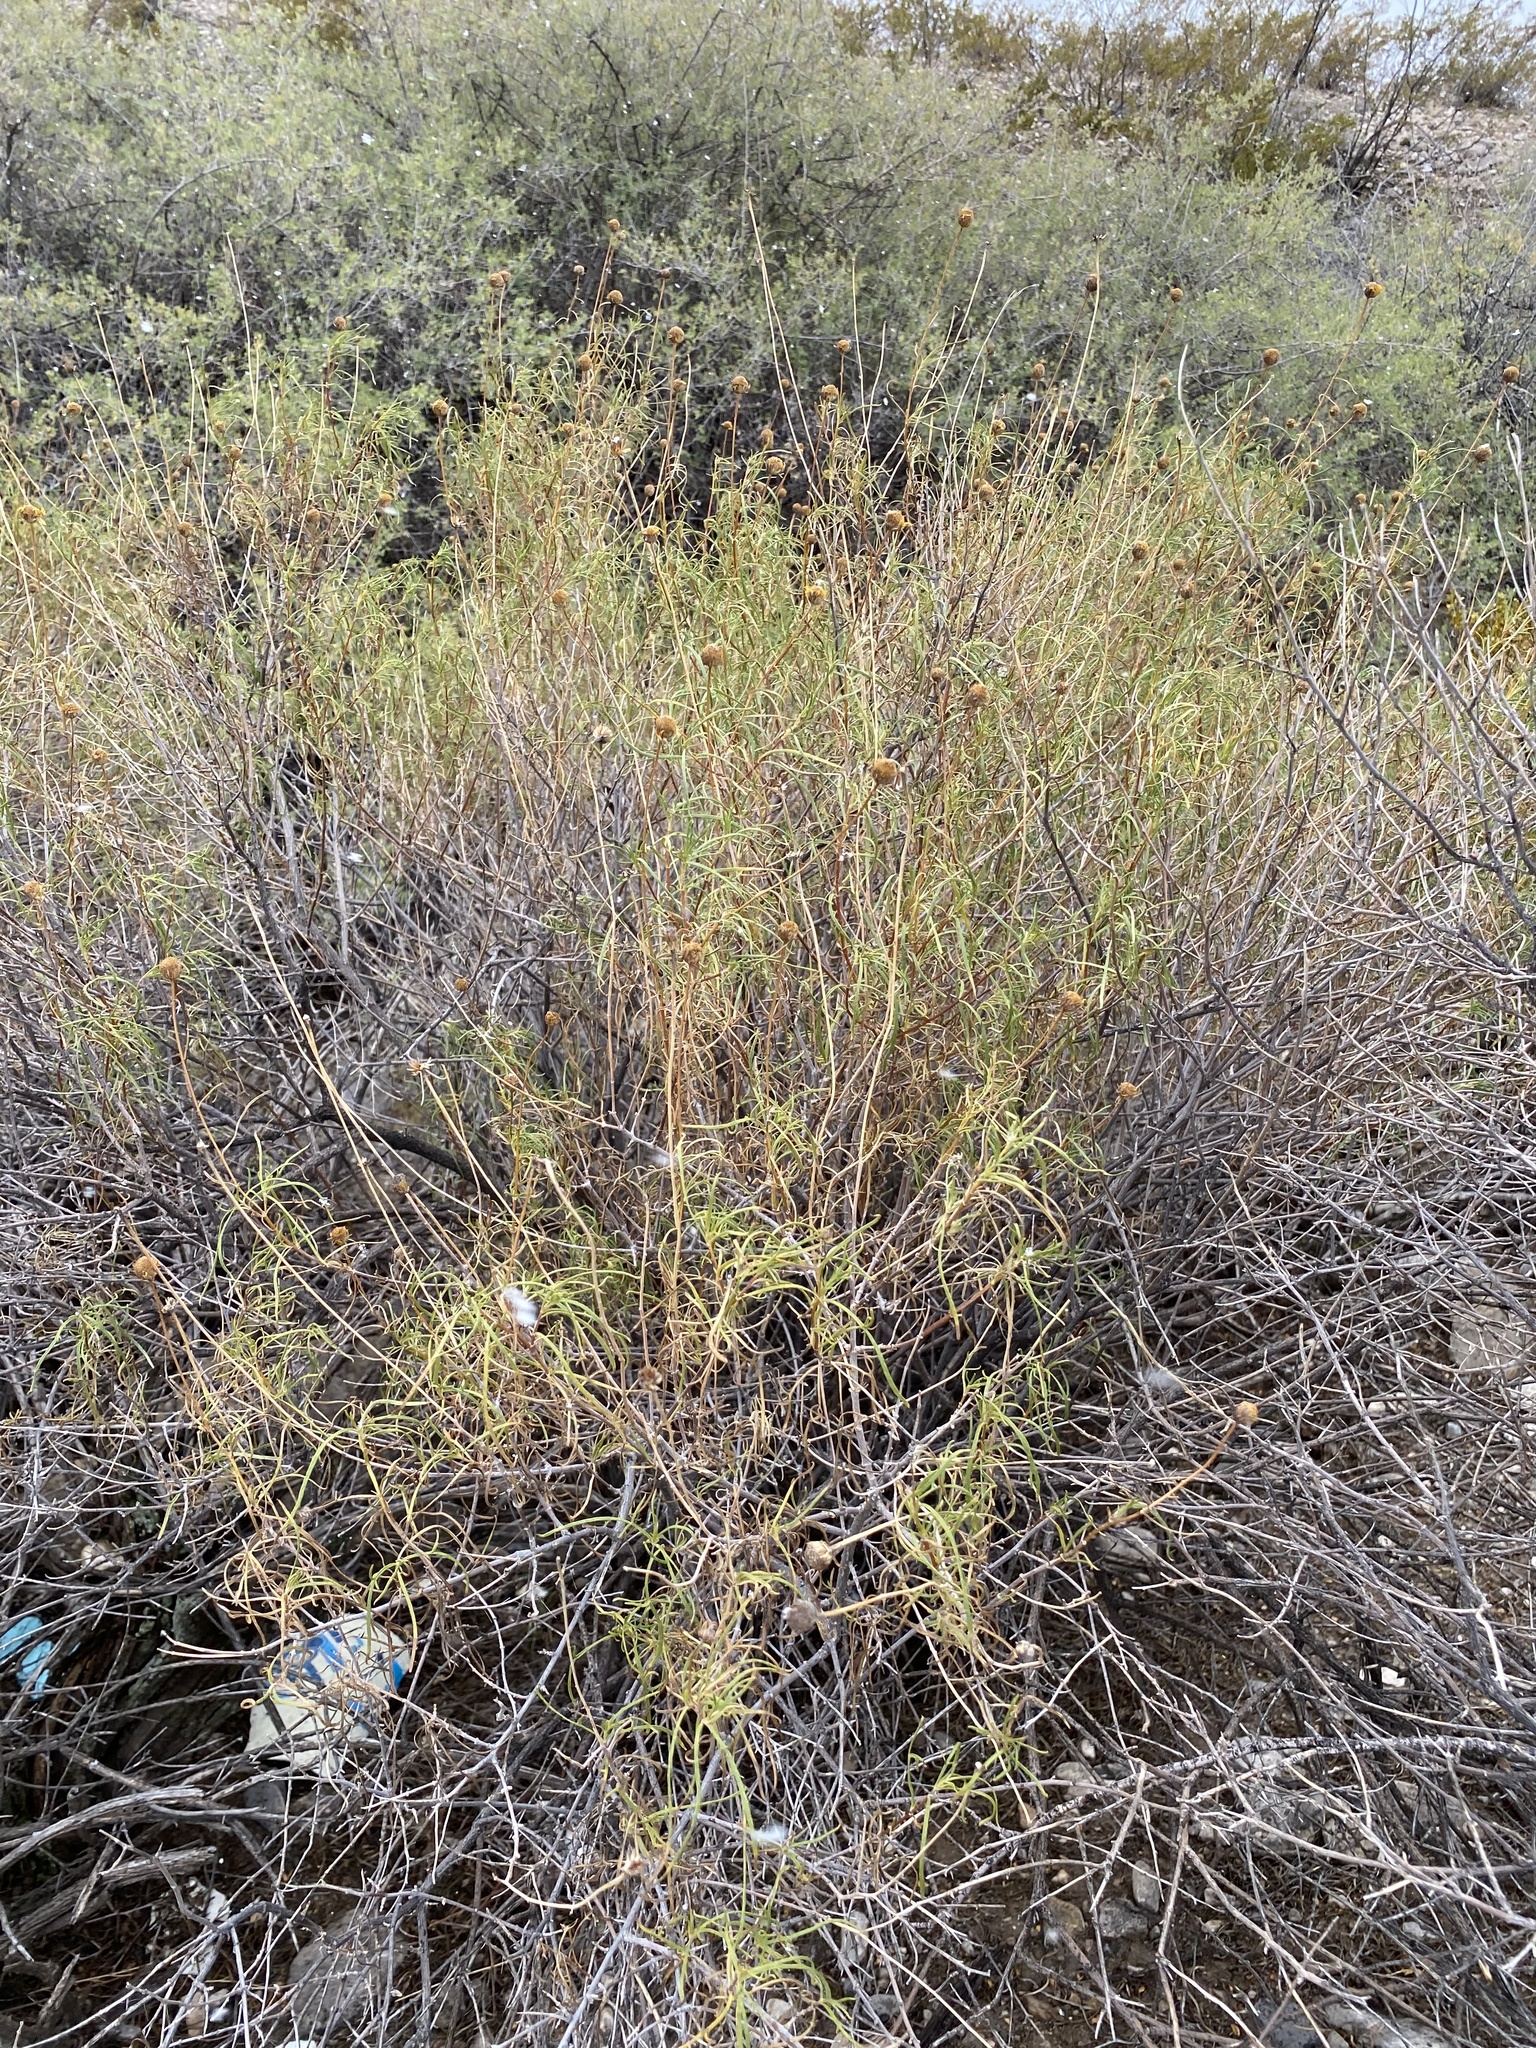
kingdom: Plantae
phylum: Tracheophyta
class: Magnoliopsida
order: Asterales
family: Asteraceae
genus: Sidneya
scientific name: Sidneya tenuifolia
